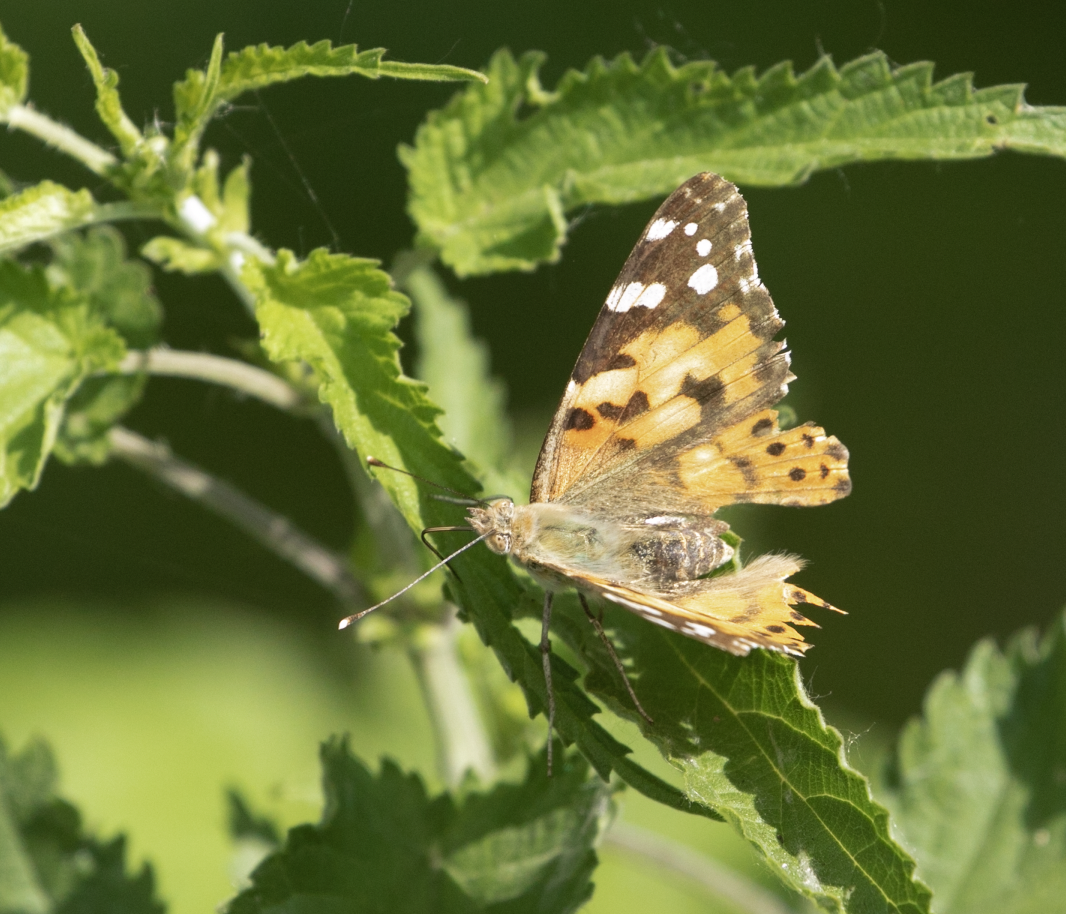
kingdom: Animalia
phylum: Arthropoda
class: Insecta
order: Lepidoptera
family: Nymphalidae
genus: Vanessa
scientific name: Vanessa cardui
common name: Painted lady
